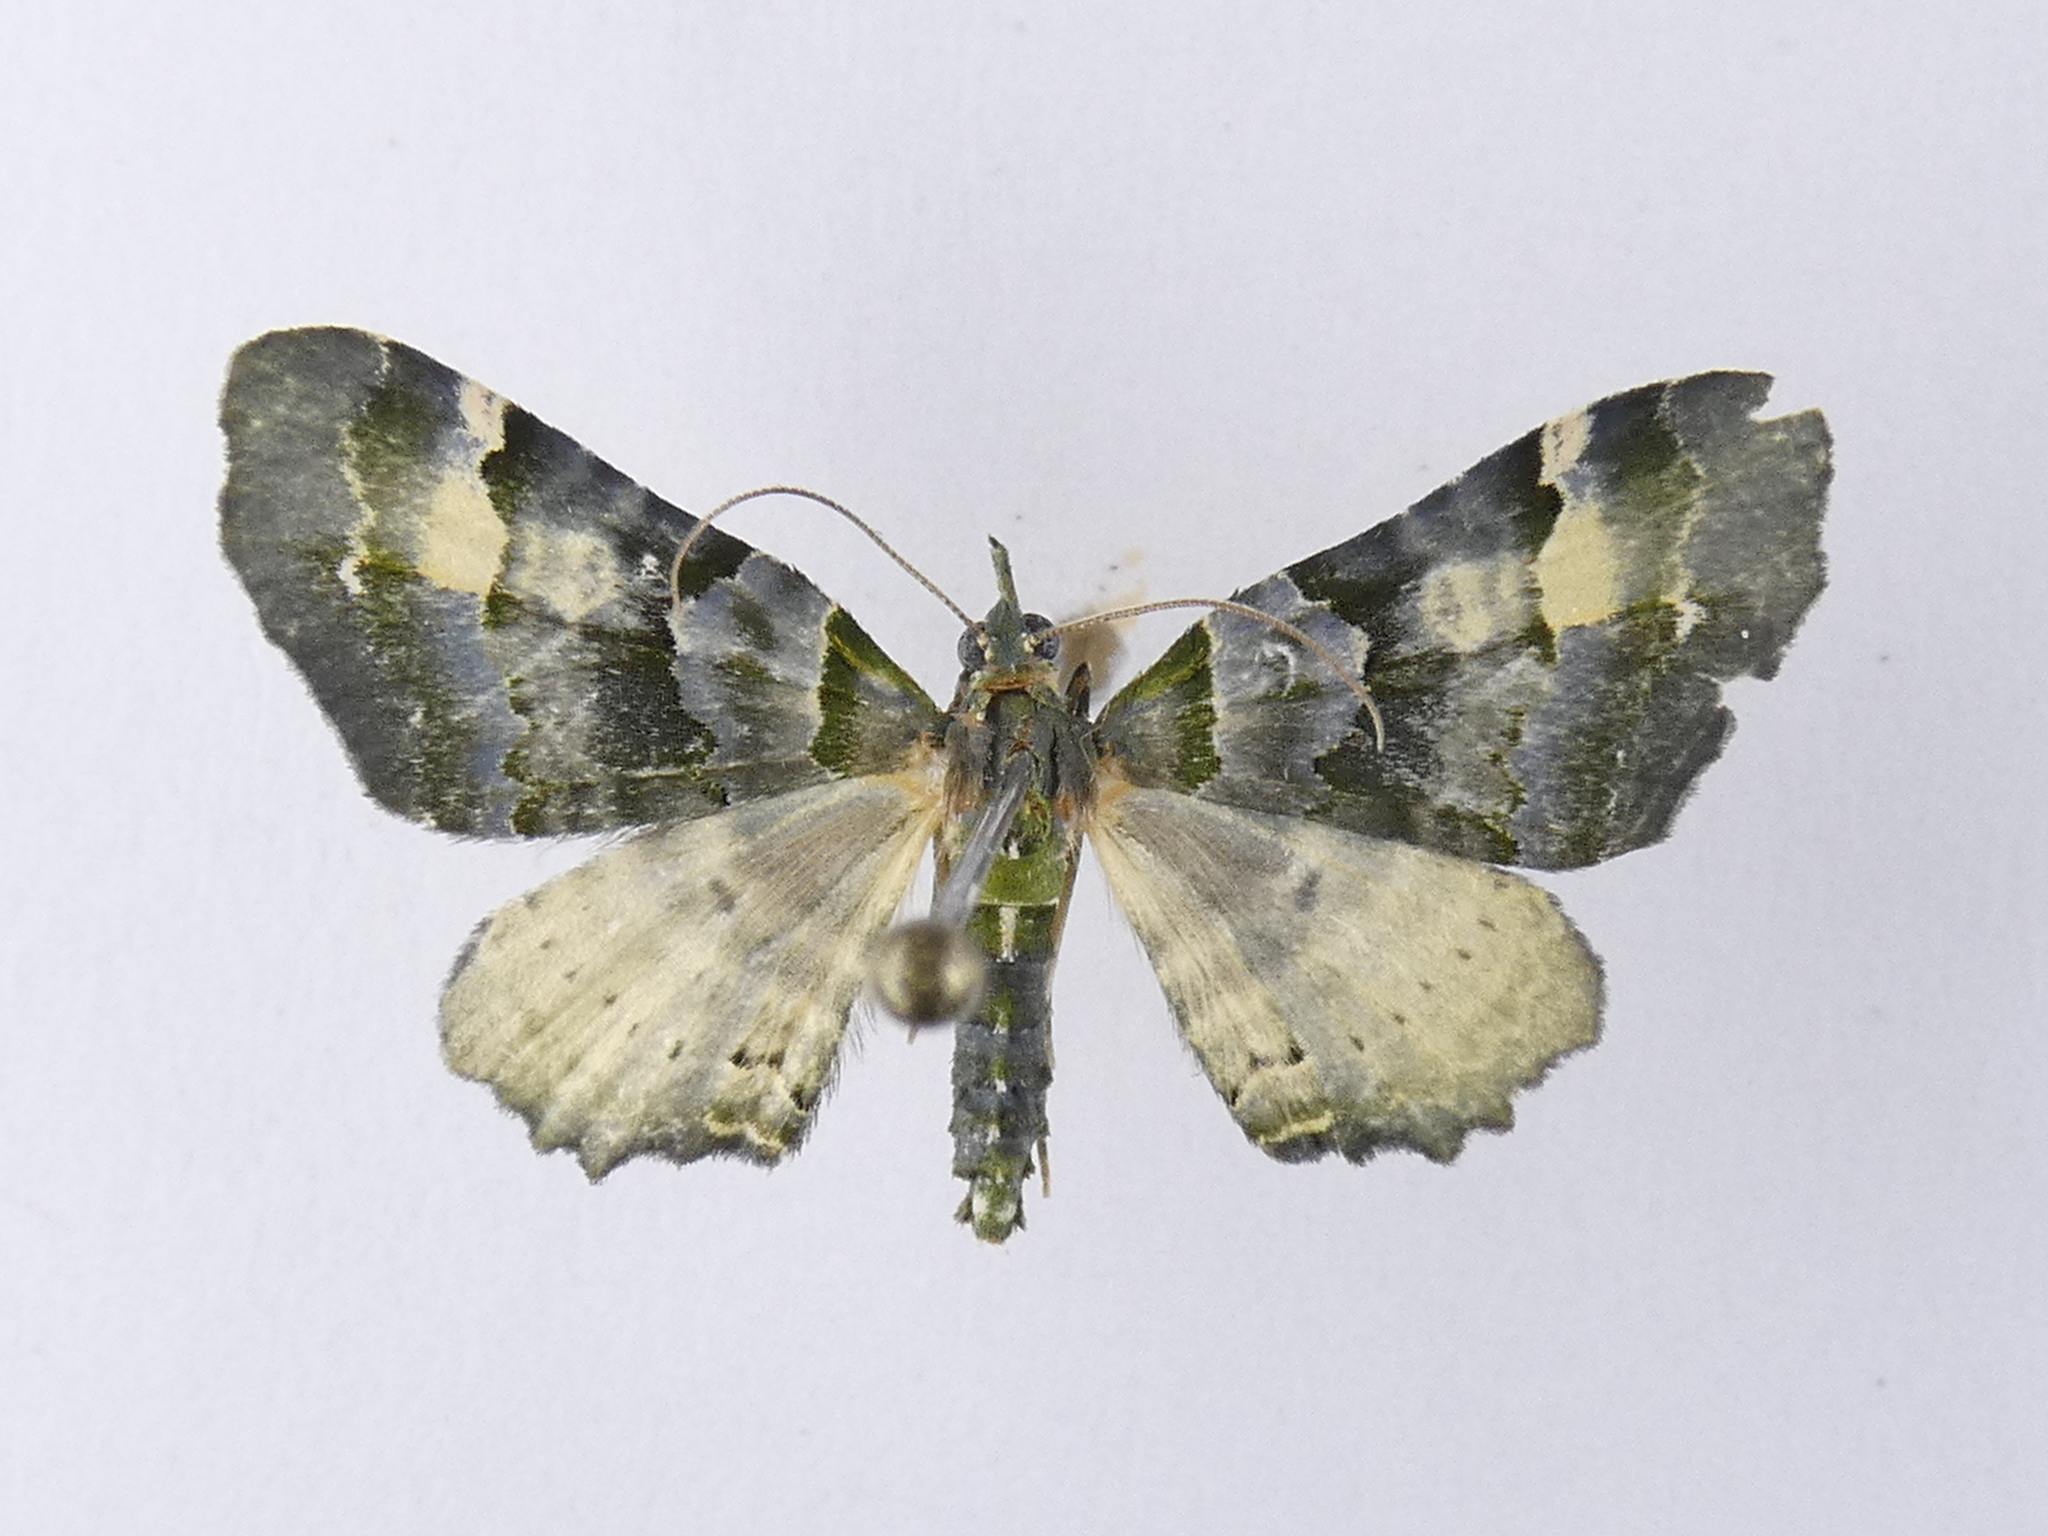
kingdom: Animalia
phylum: Arthropoda
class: Insecta
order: Lepidoptera
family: Geometridae
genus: Elvia
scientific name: Elvia glaucata
